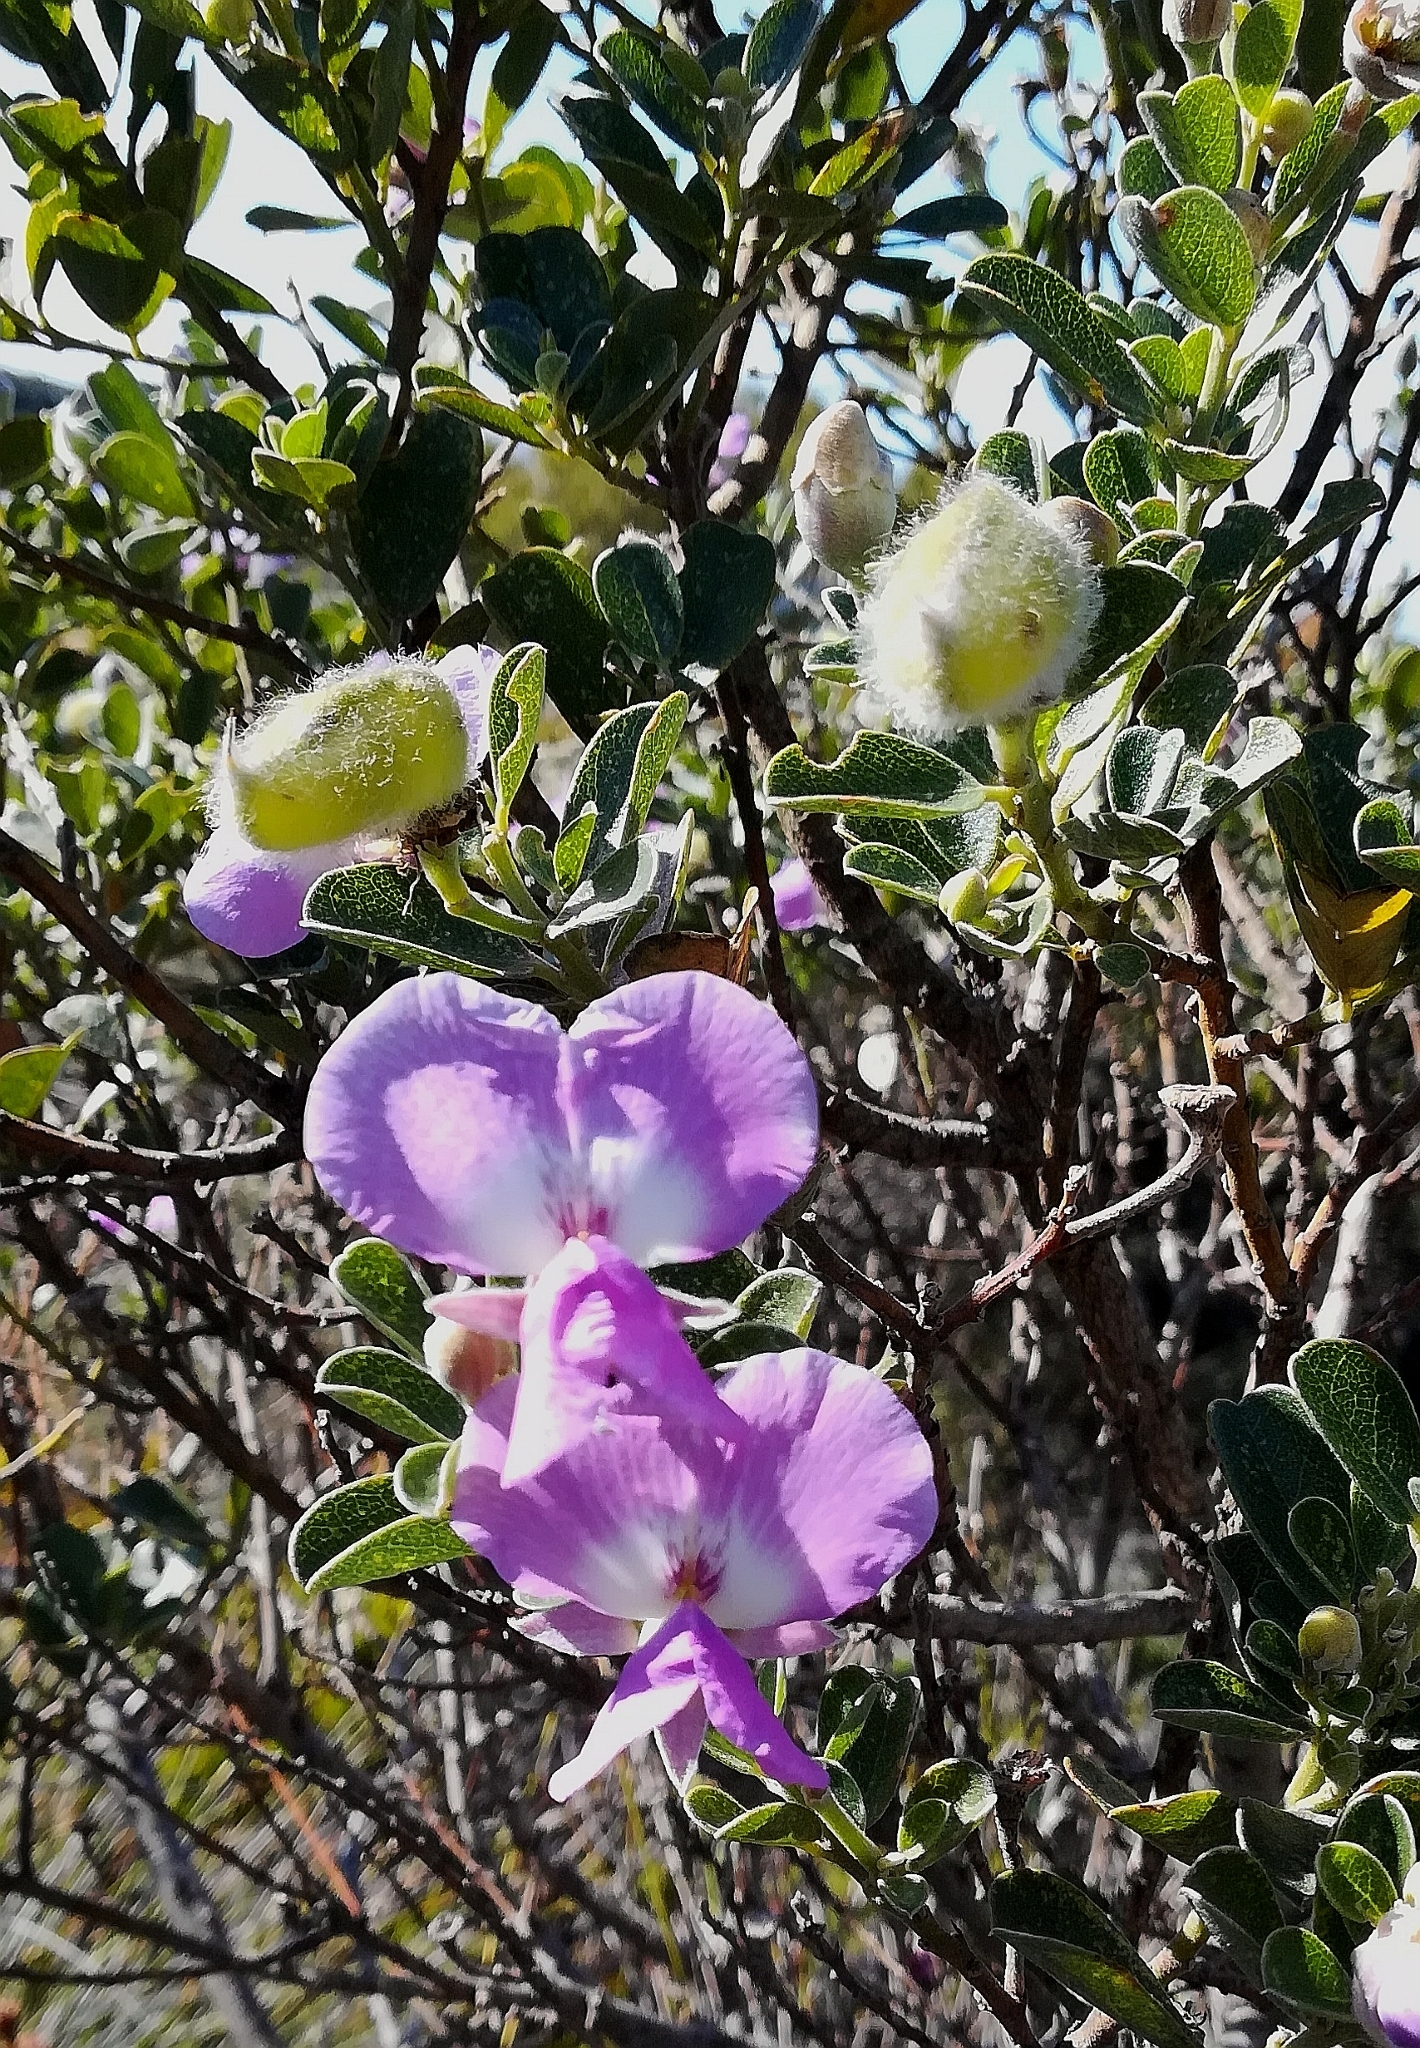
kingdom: Plantae
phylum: Tracheophyta
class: Magnoliopsida
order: Fabales
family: Fabaceae
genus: Podalyria
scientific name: Podalyria calyptrata
